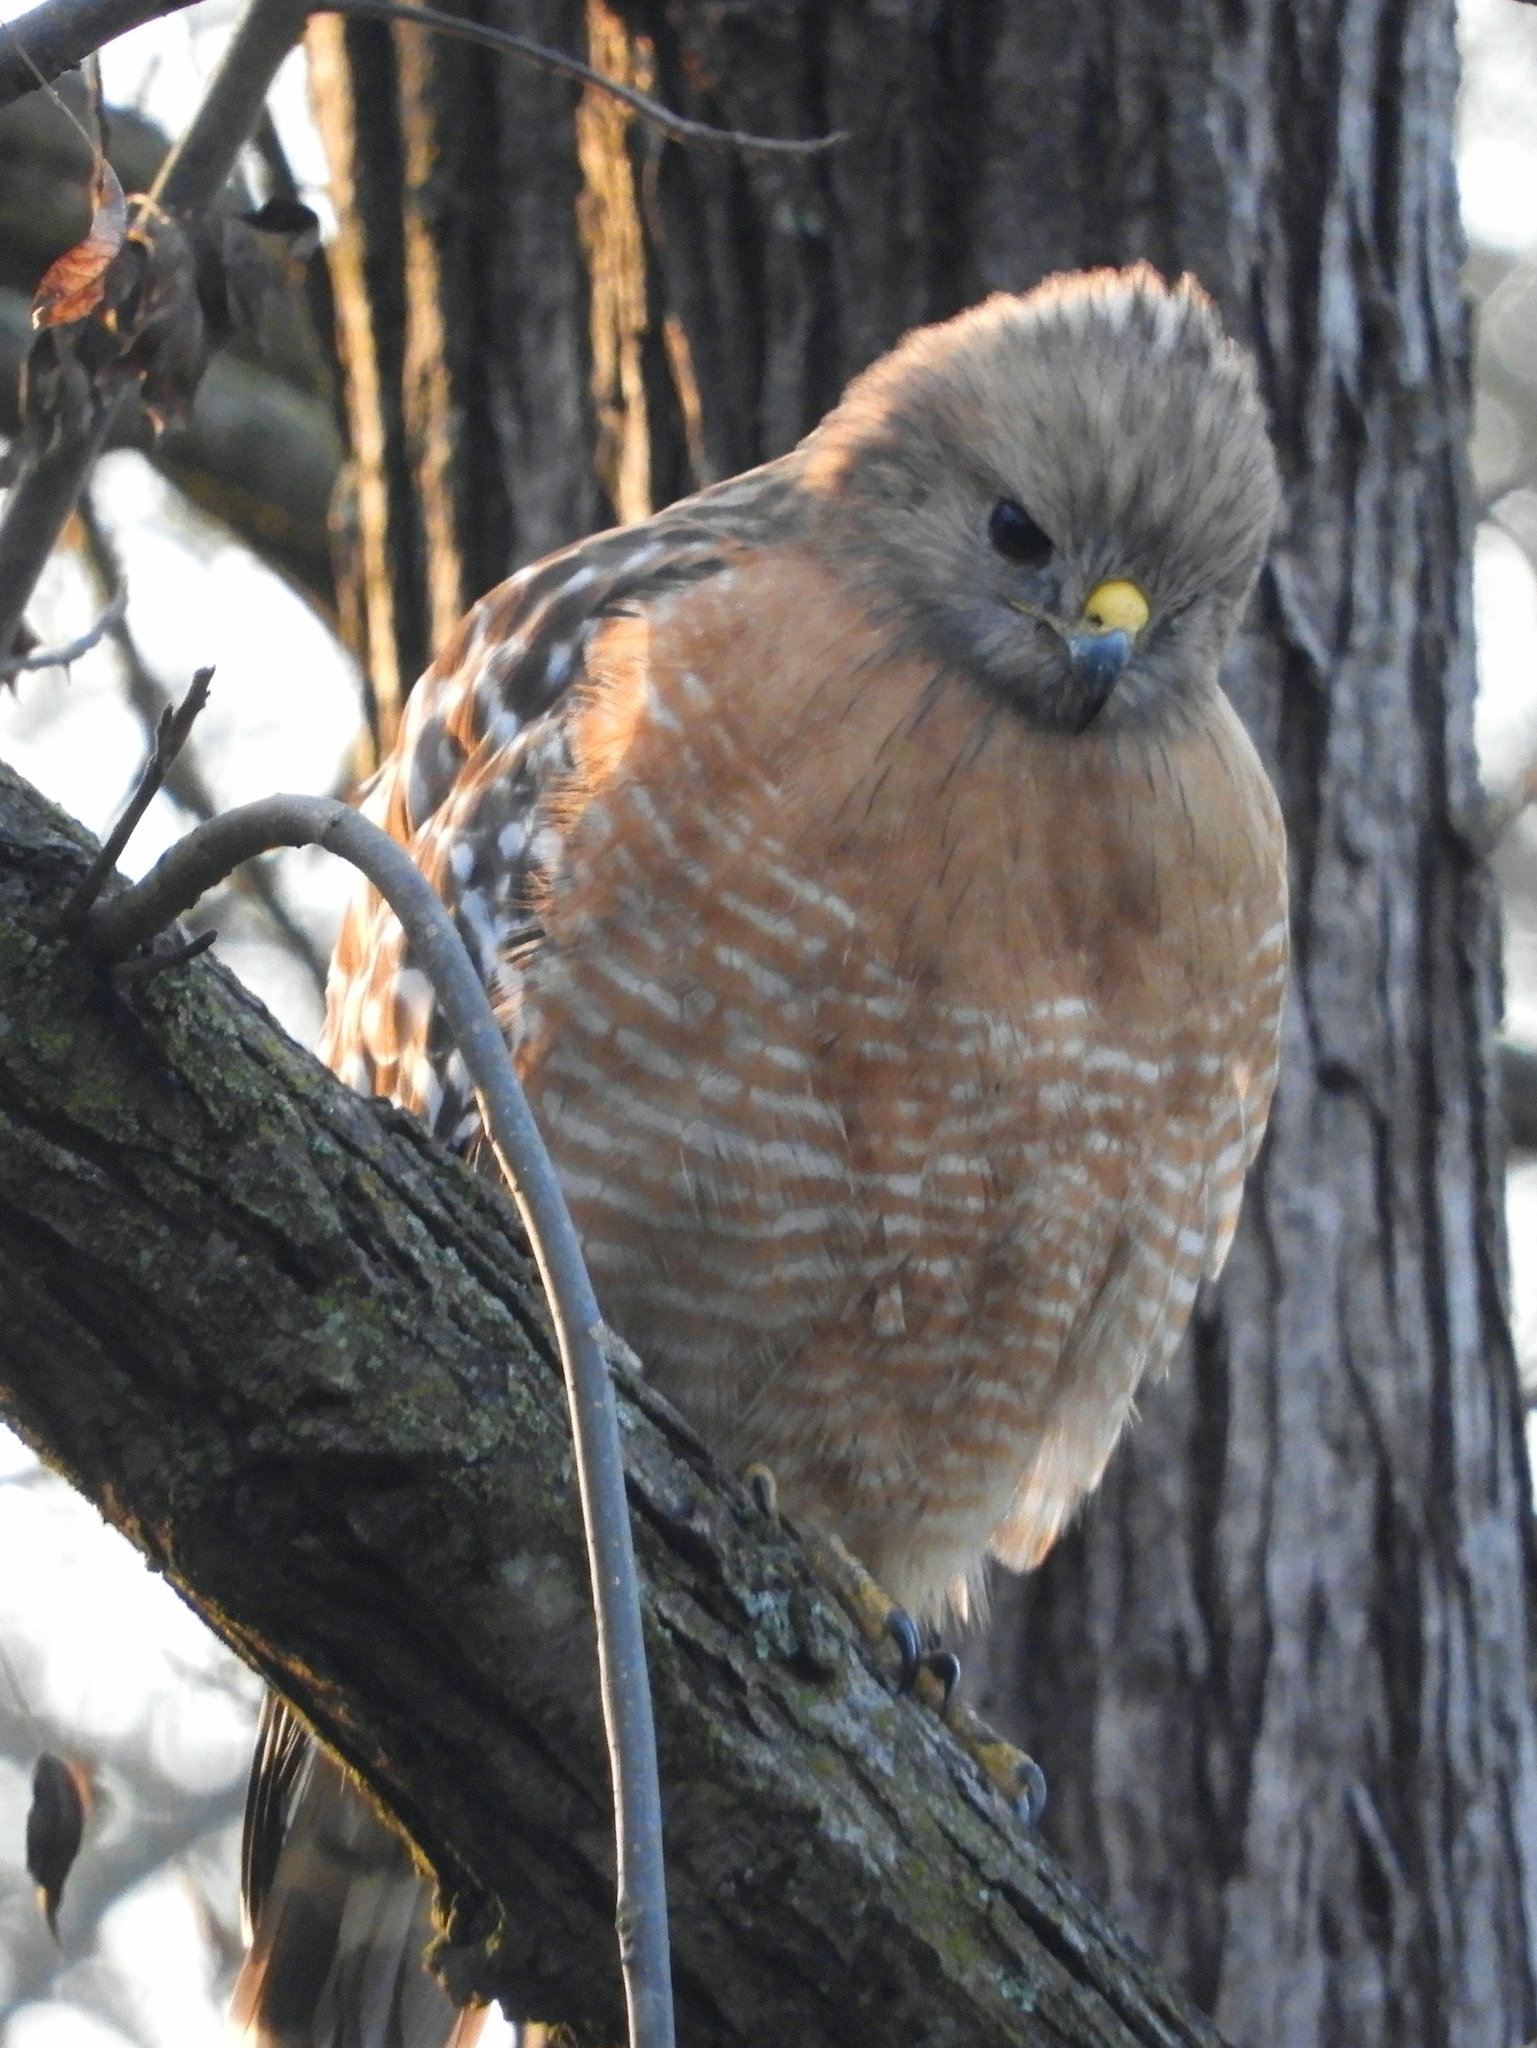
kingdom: Animalia
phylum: Chordata
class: Aves
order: Accipitriformes
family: Accipitridae
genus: Buteo
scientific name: Buteo lineatus
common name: Red-shouldered hawk
